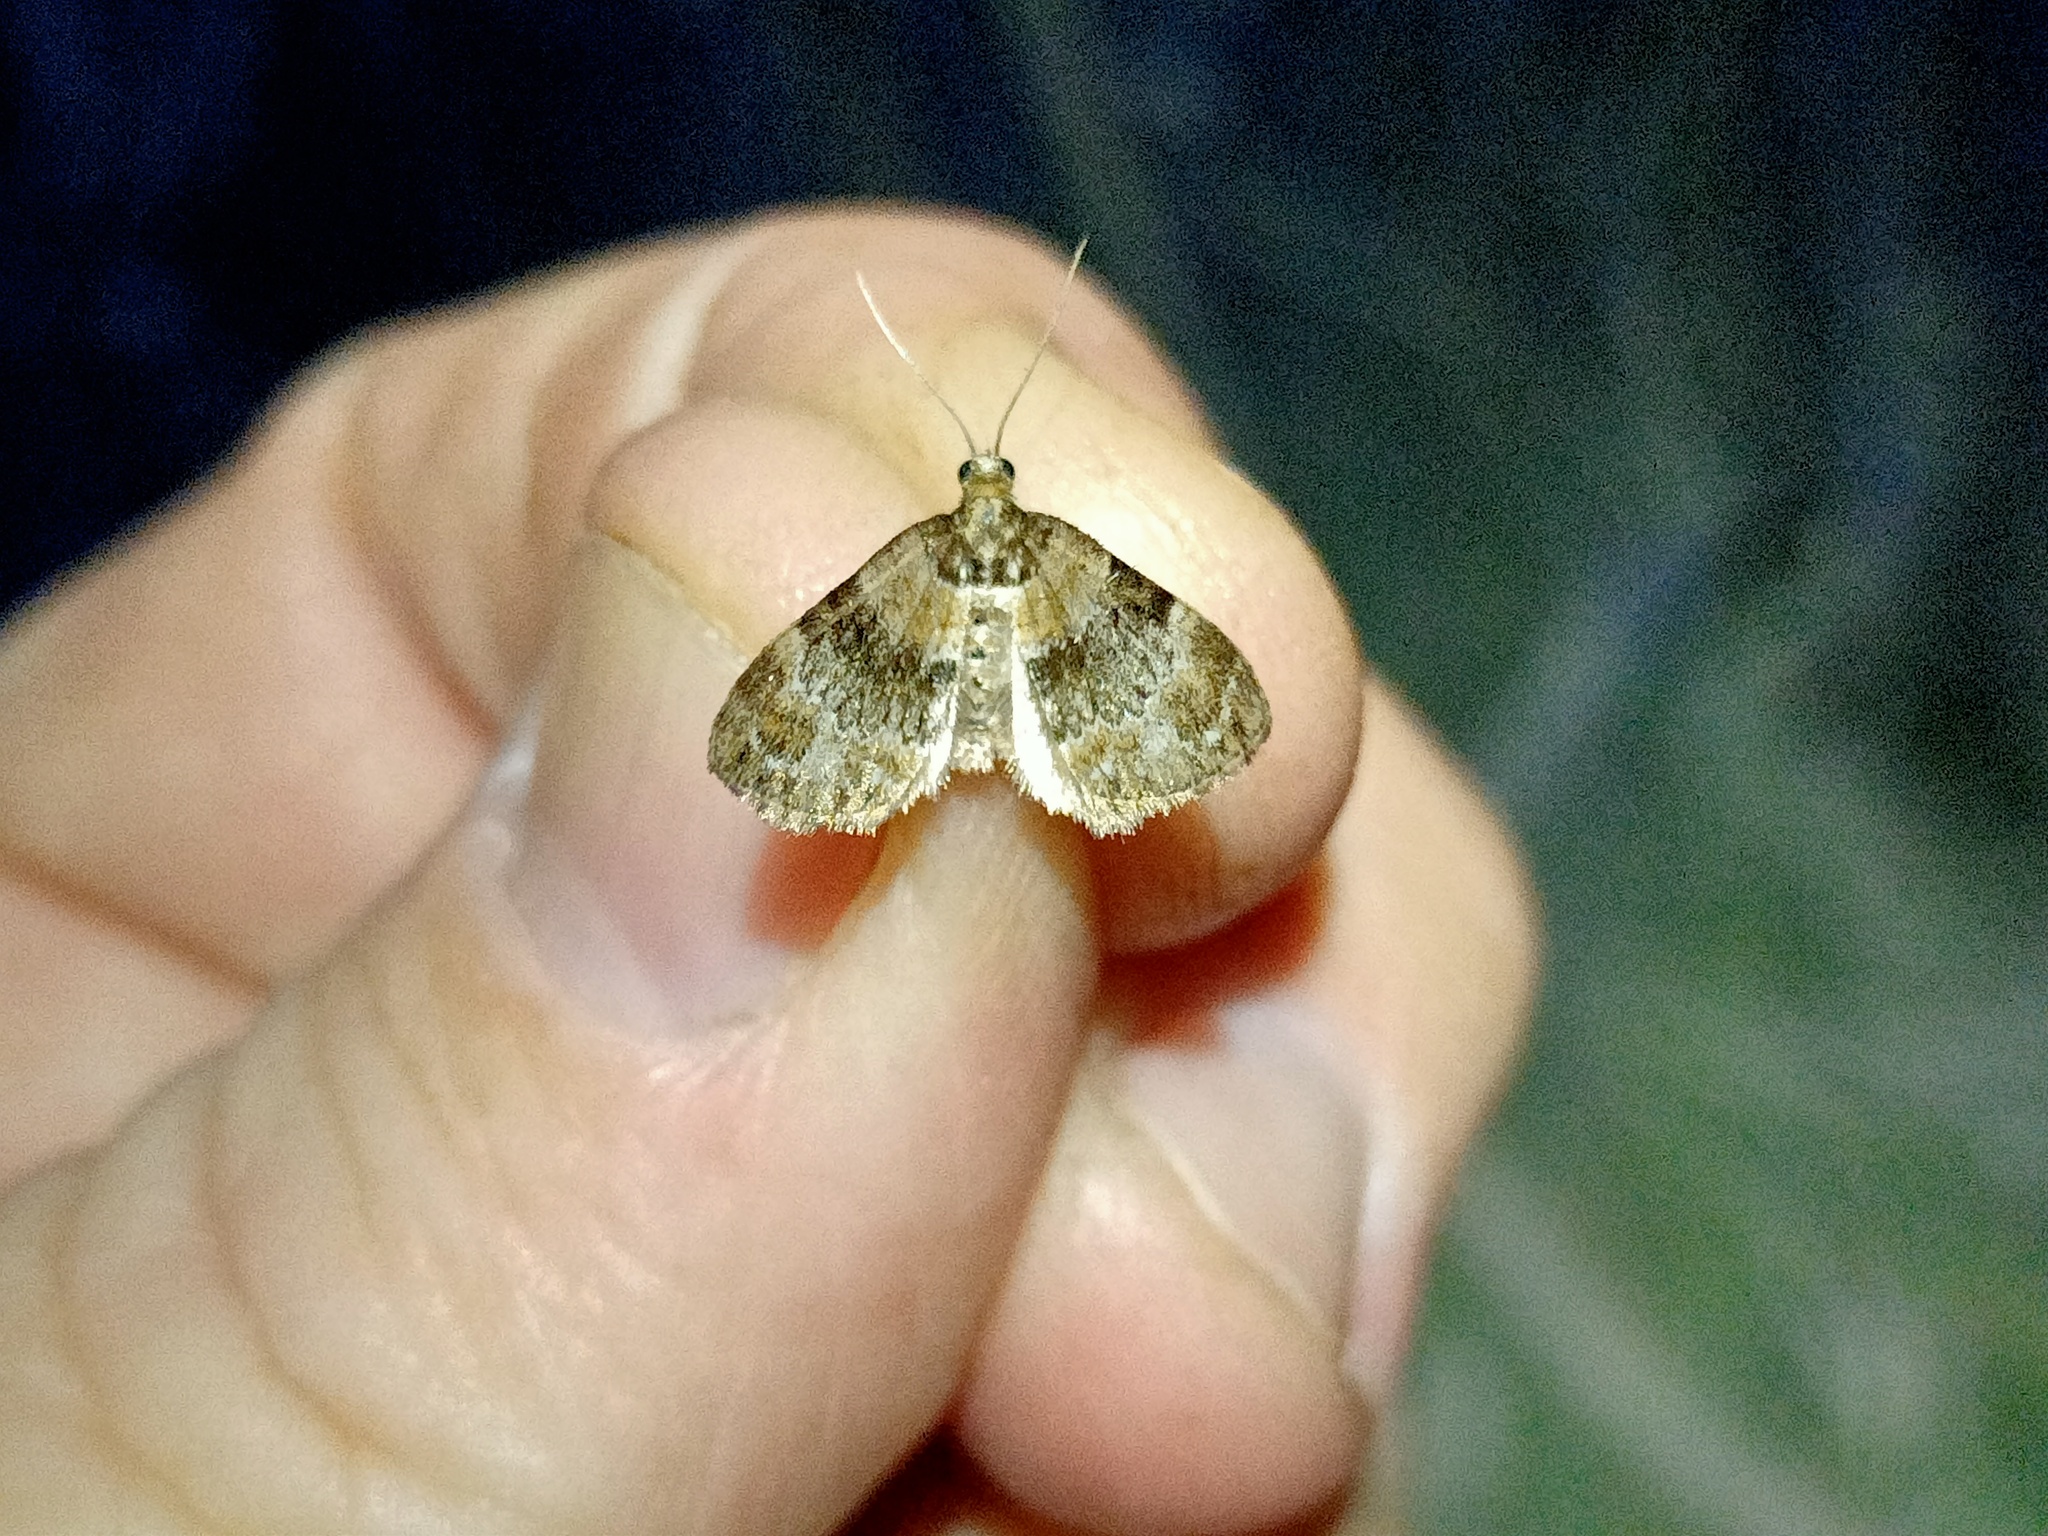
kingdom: Animalia
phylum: Arthropoda
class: Insecta
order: Lepidoptera
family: Geometridae
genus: Perizoma
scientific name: Perizoma taeniata
